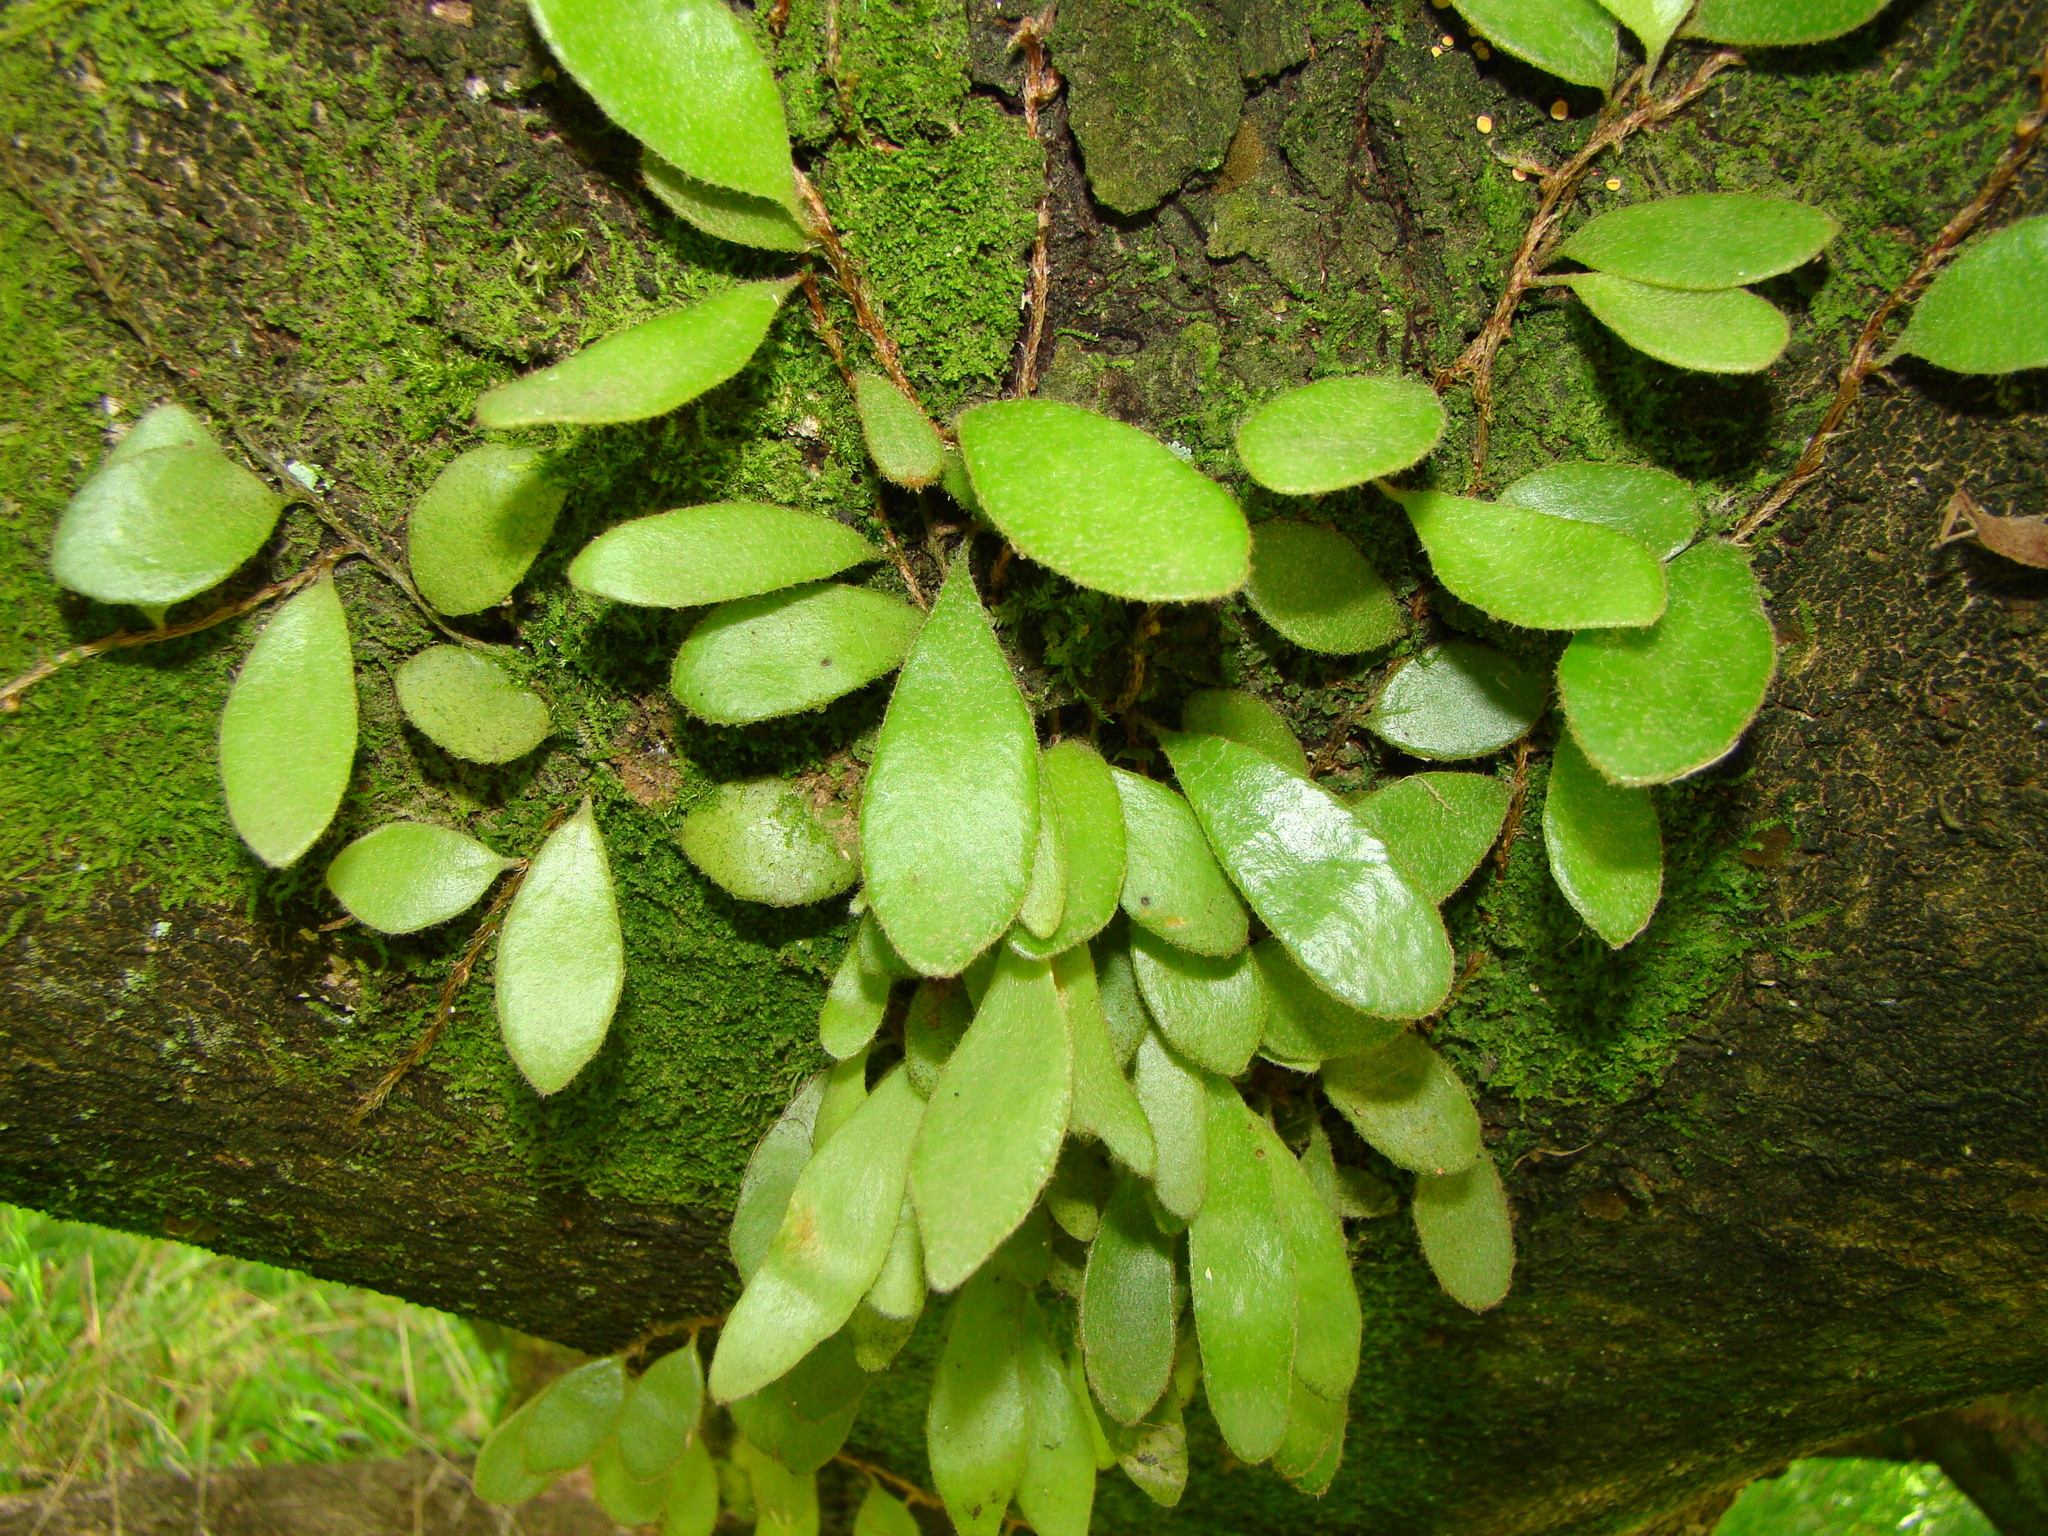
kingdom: Plantae
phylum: Tracheophyta
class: Polypodiopsida
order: Polypodiales
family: Polypodiaceae
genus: Pyrrosia
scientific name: Pyrrosia eleagnifolia
